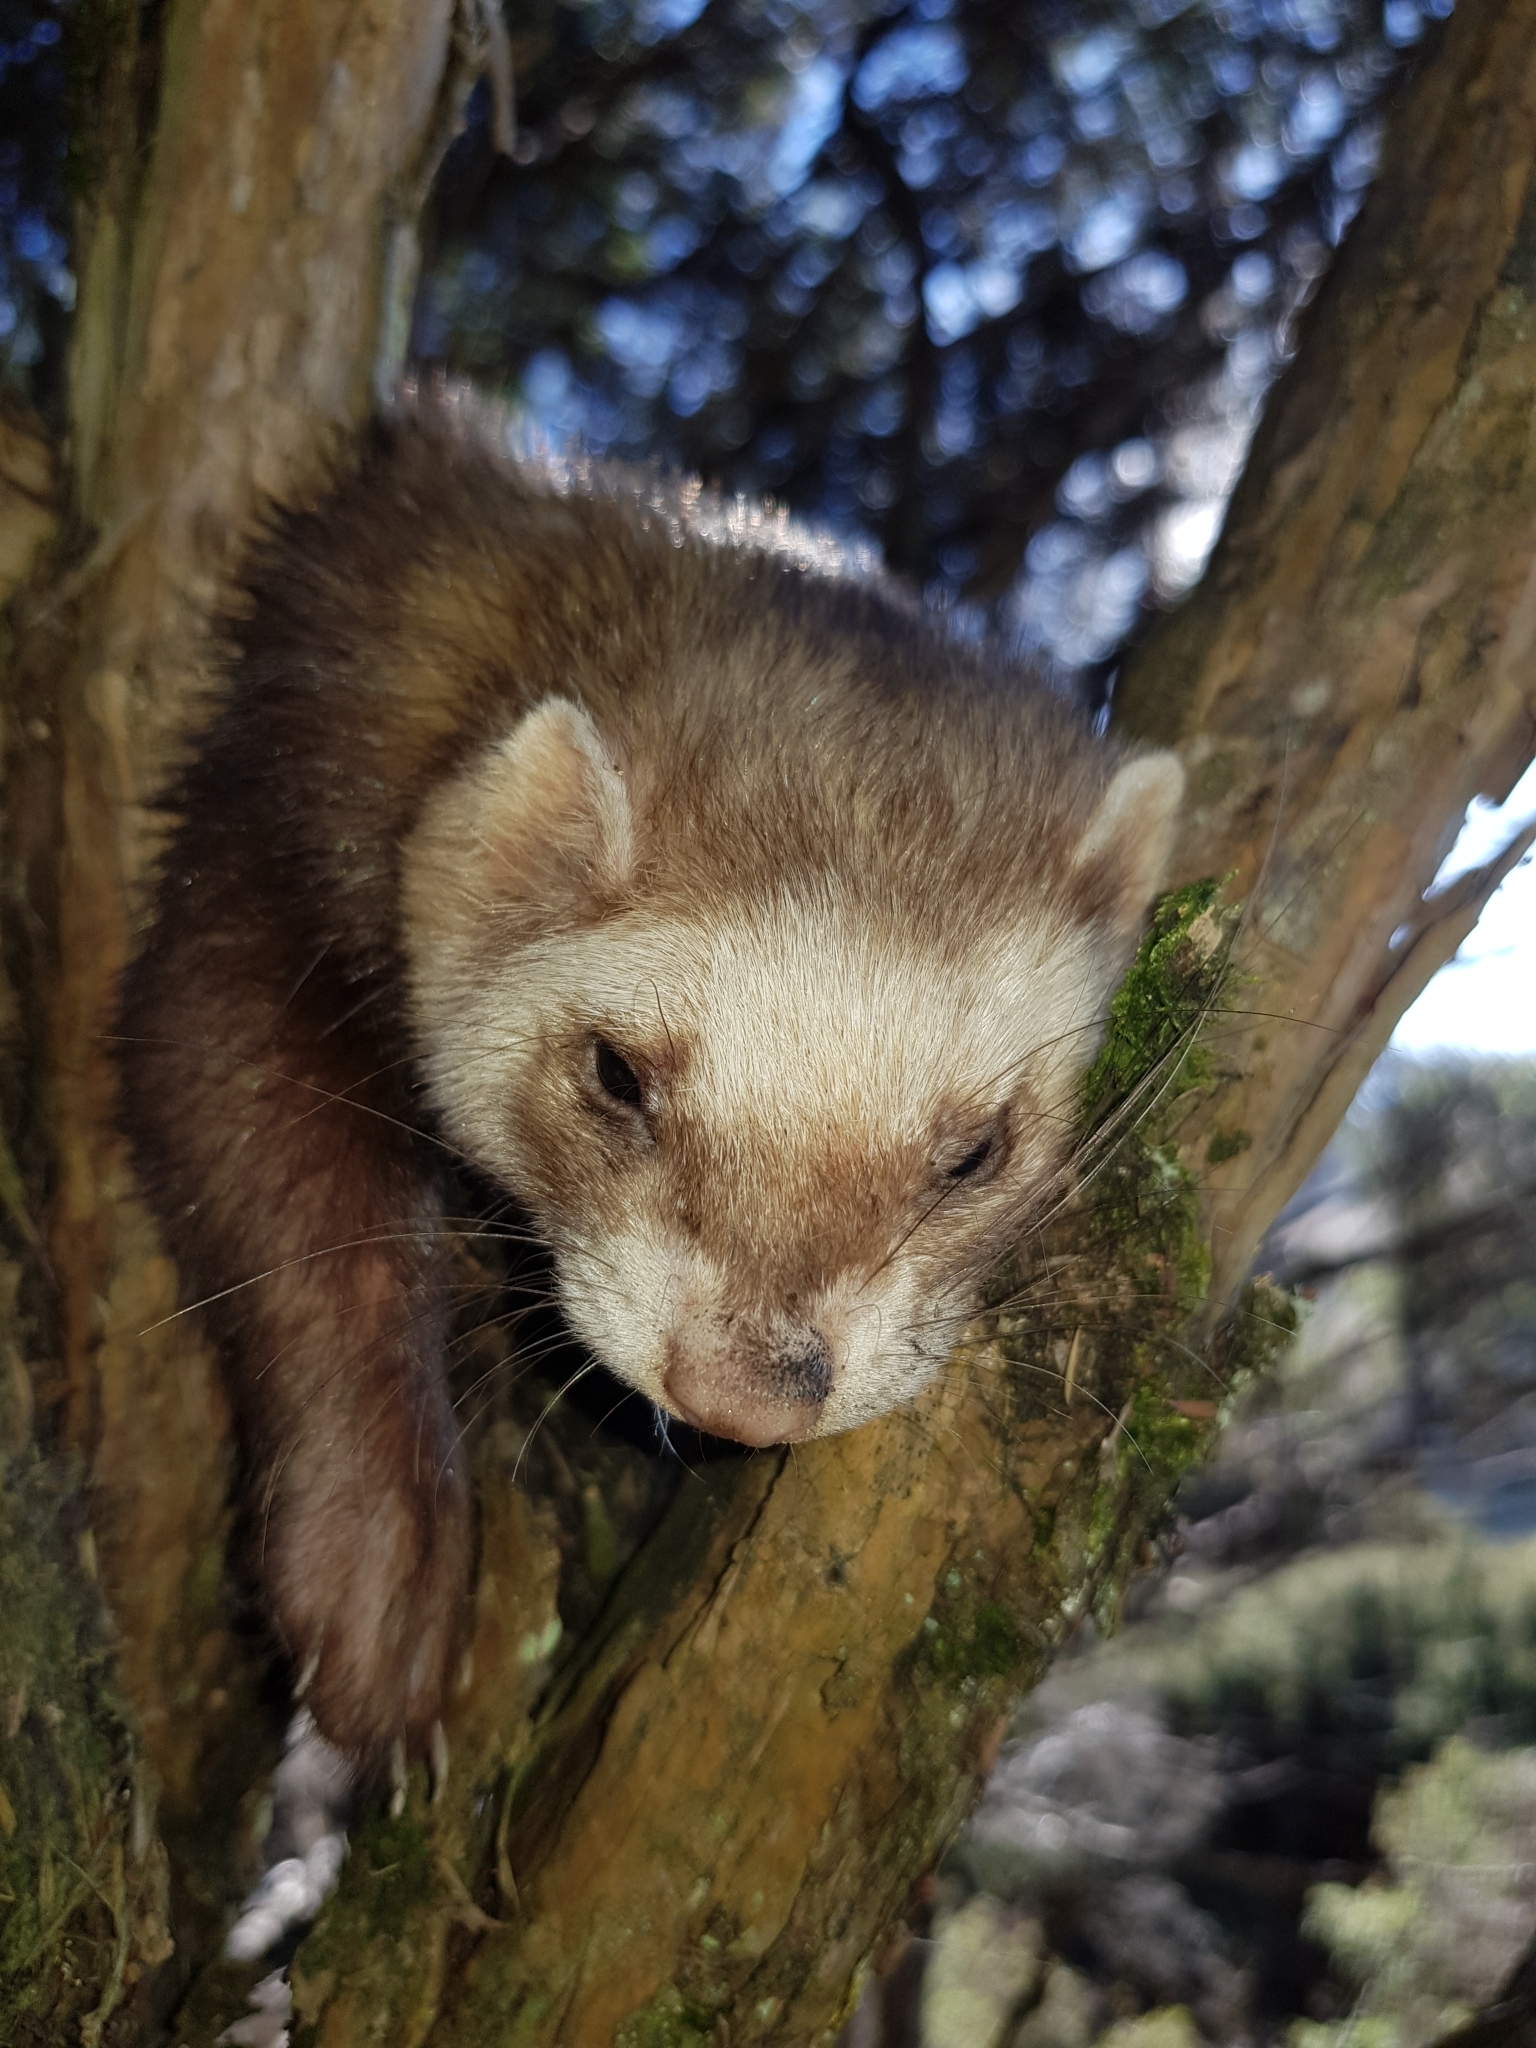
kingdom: Animalia
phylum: Chordata
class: Mammalia
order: Carnivora
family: Mustelidae
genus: Mustela
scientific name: Mustela putorius
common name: European polecat
